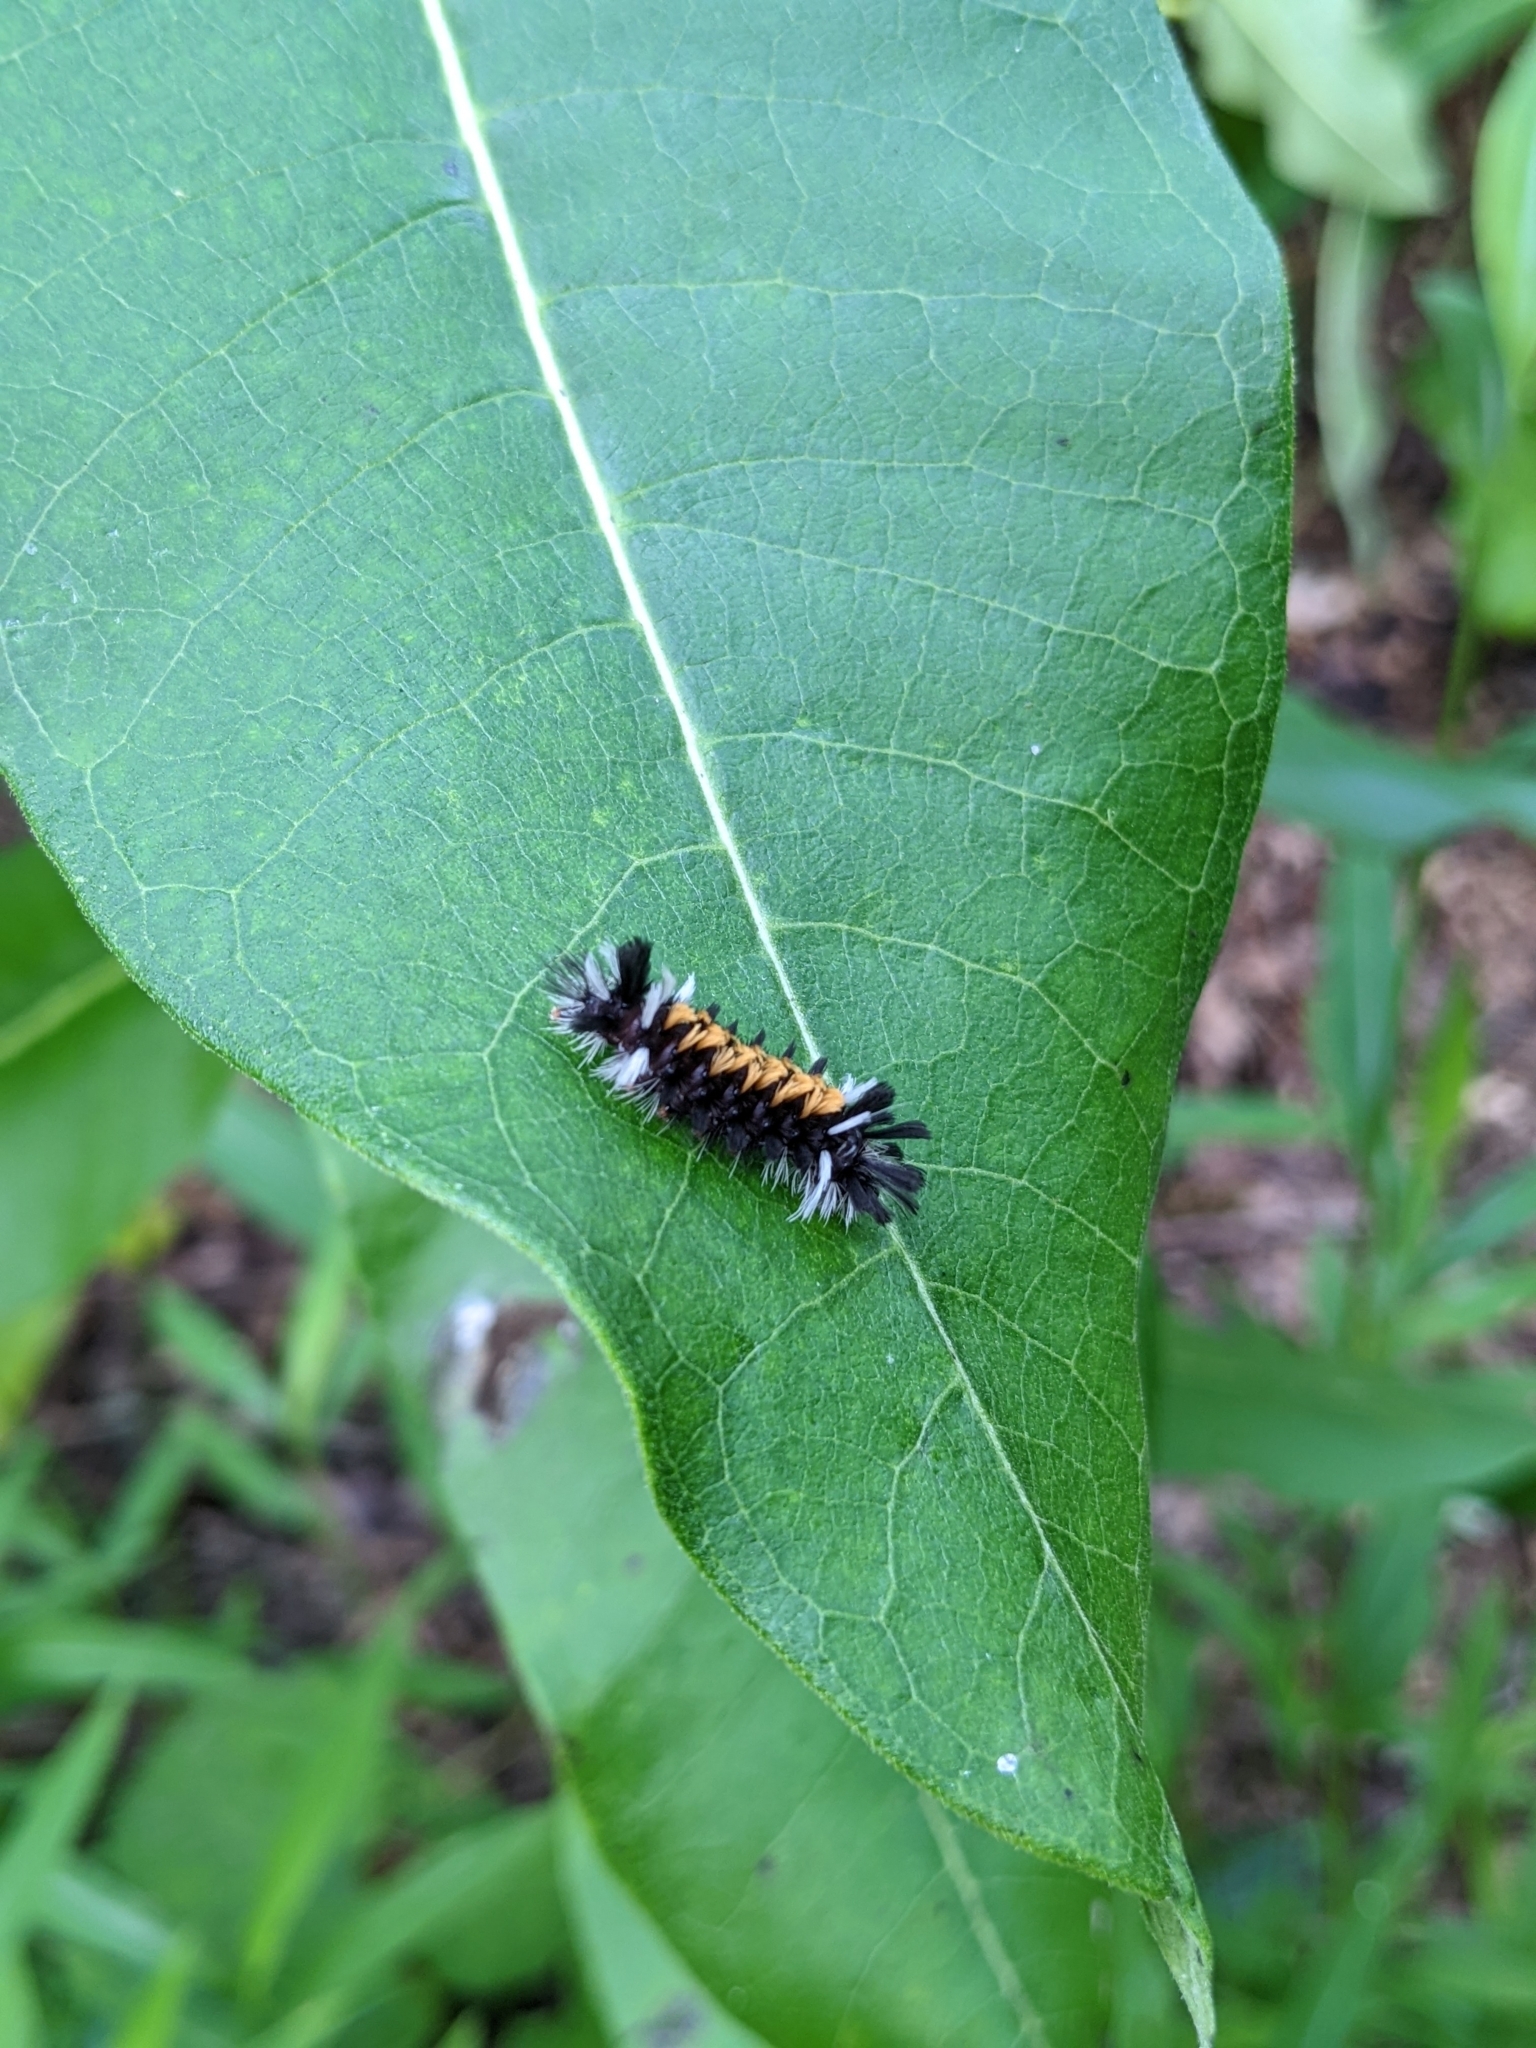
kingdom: Animalia
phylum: Arthropoda
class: Insecta
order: Lepidoptera
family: Erebidae
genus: Euchaetes
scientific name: Euchaetes egle
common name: Milkweed tussock moth
